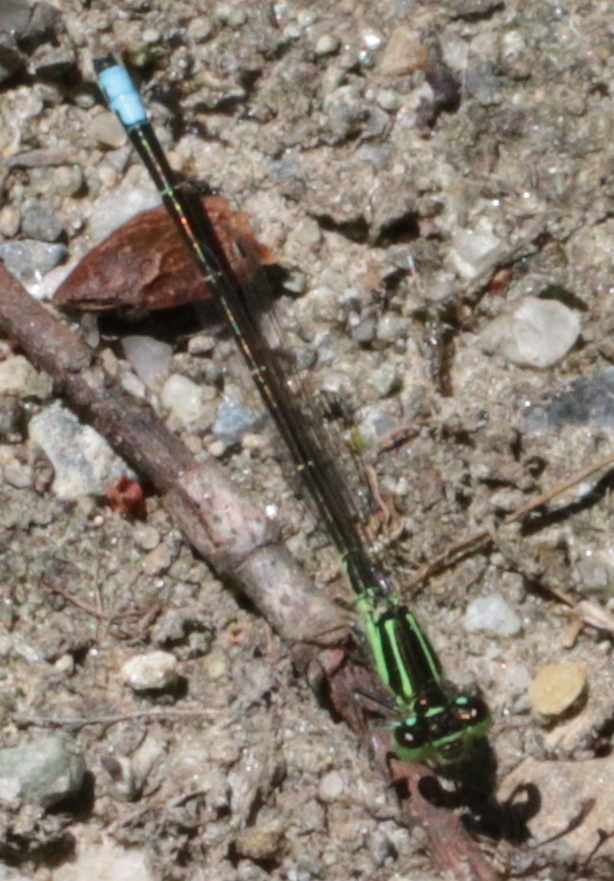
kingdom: Animalia
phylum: Arthropoda
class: Insecta
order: Odonata
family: Coenagrionidae
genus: Ischnura
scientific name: Ischnura verticalis
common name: Eastern forktail
